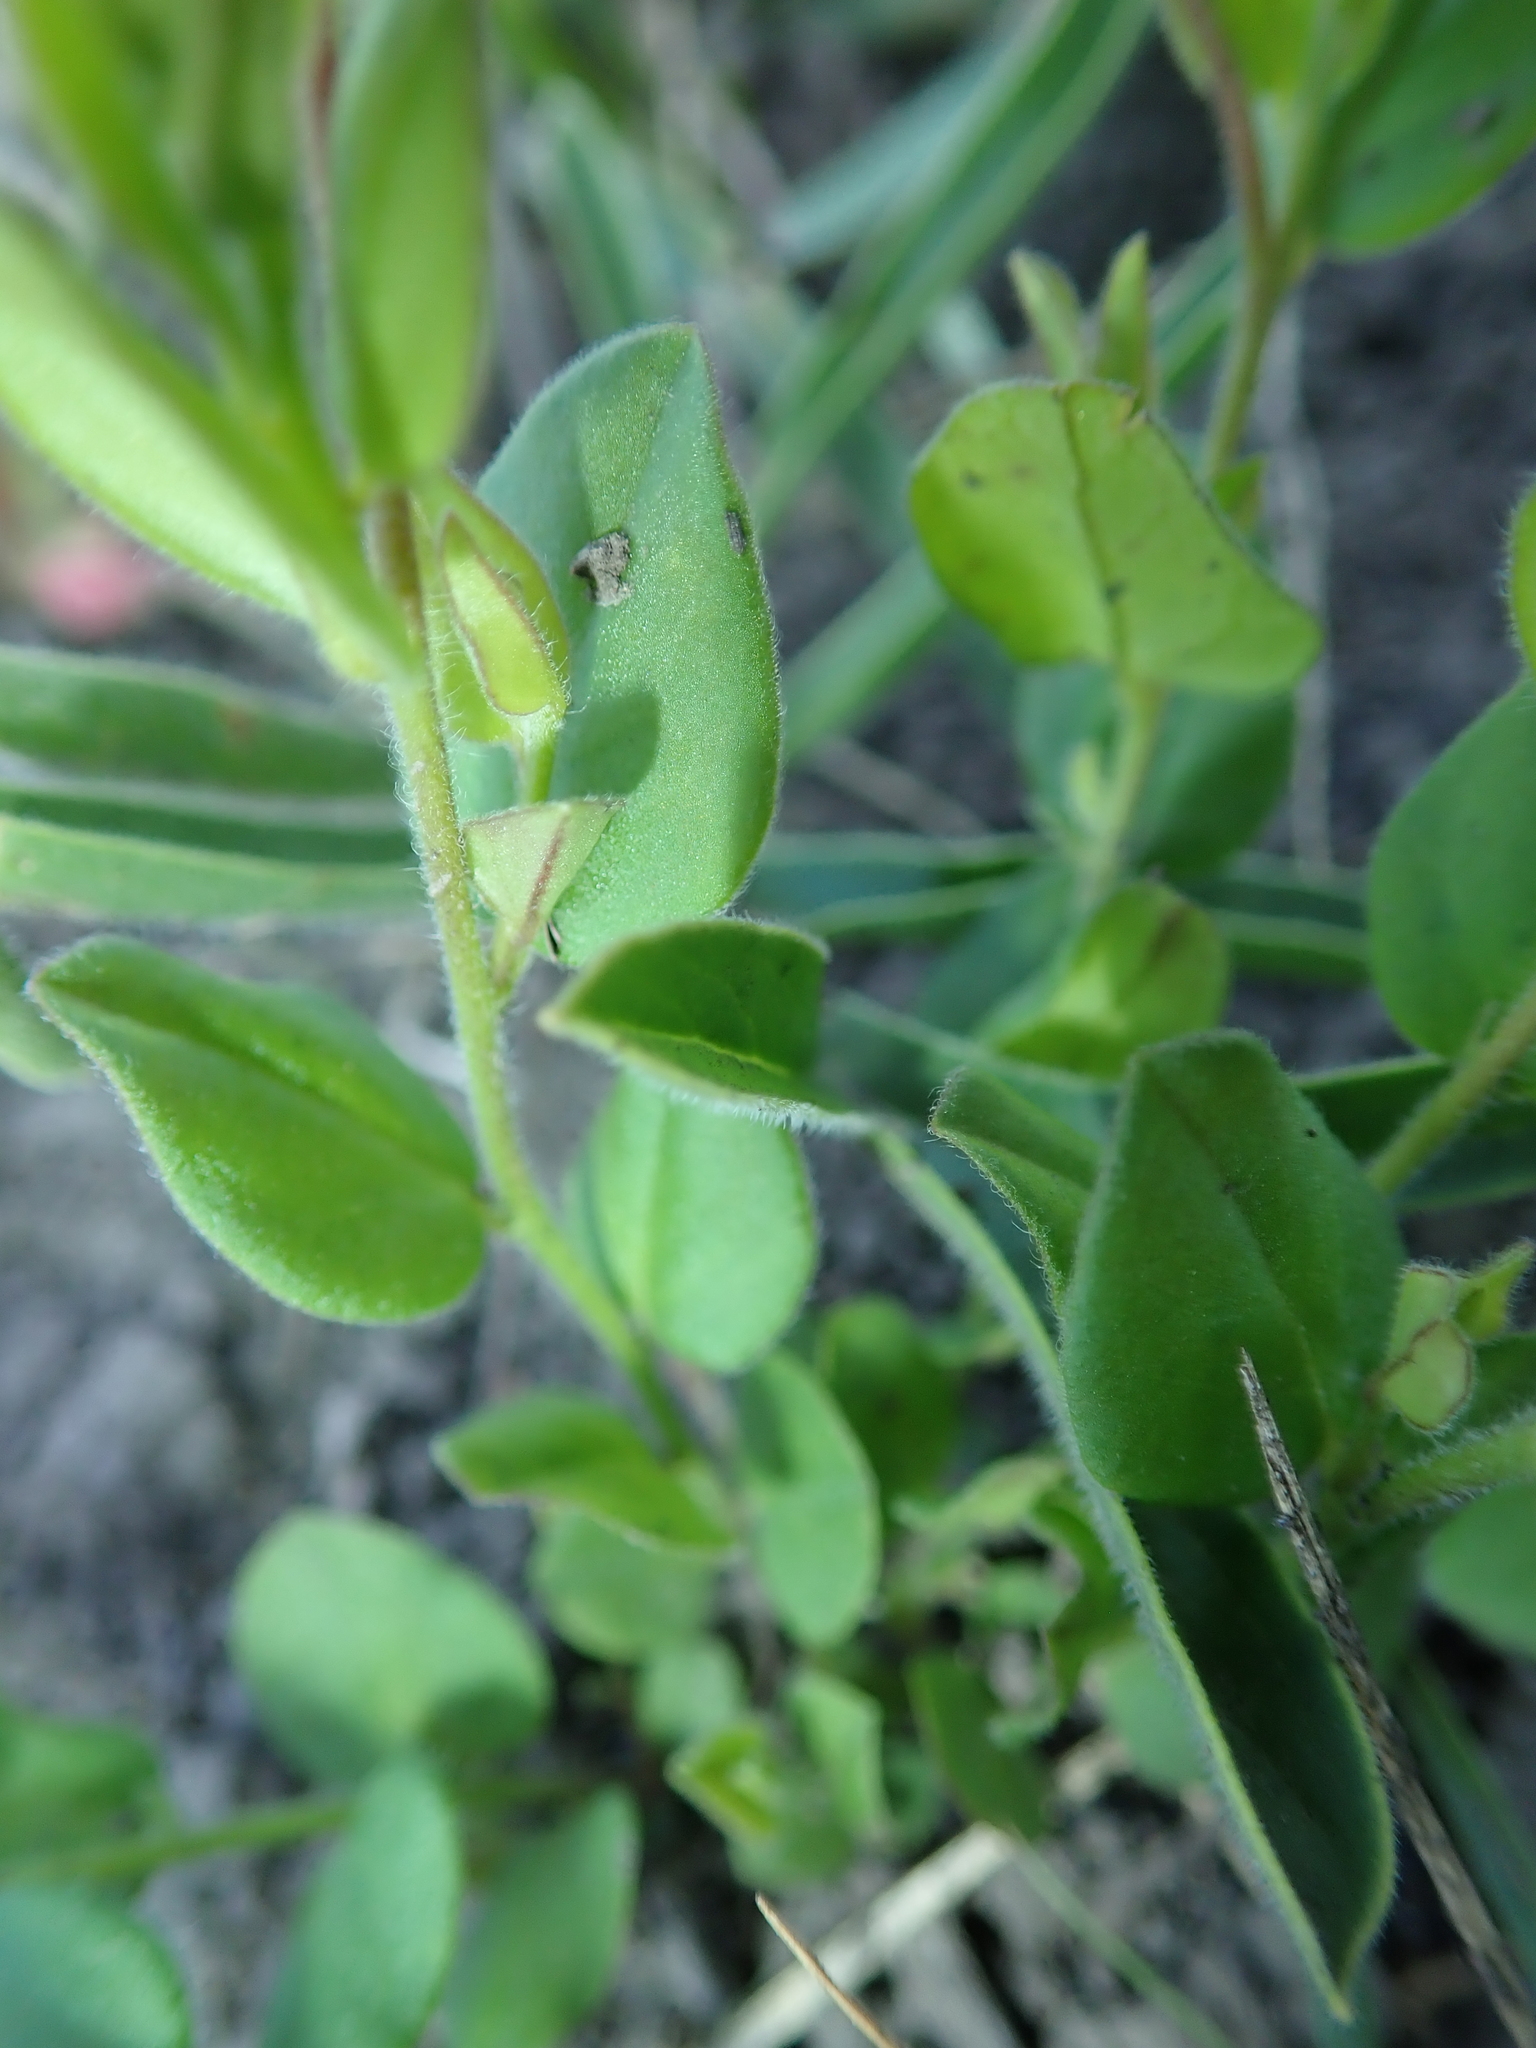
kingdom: Plantae
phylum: Tracheophyta
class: Magnoliopsida
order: Fabales
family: Polygalaceae
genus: Polygala
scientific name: Polygala amatymbica
